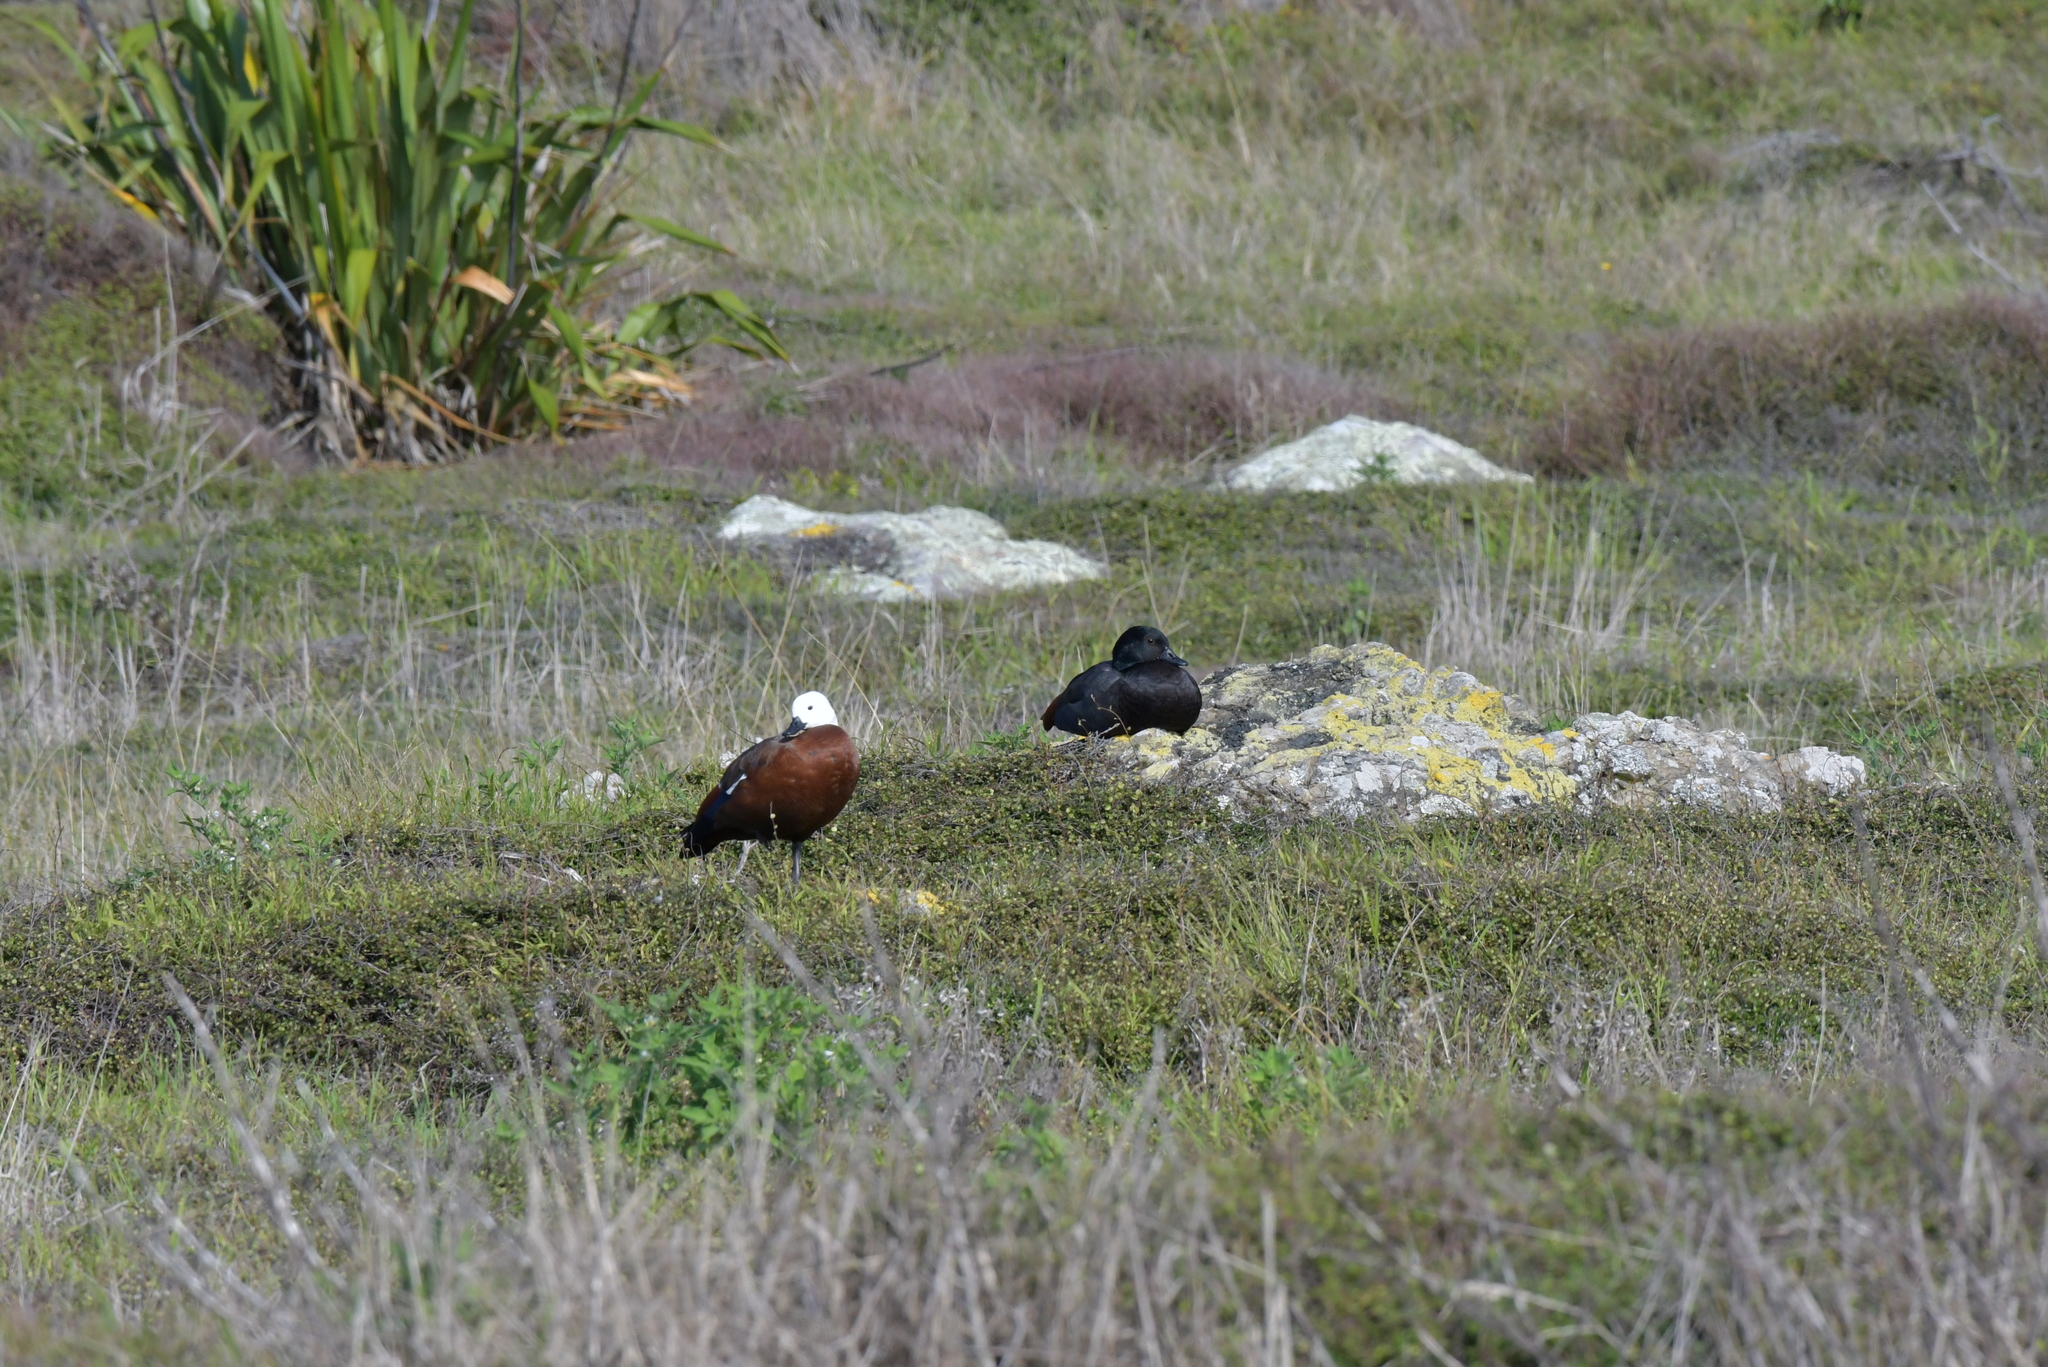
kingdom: Animalia
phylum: Chordata
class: Aves
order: Anseriformes
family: Anatidae
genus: Tadorna
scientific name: Tadorna variegata
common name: Paradise shelduck
